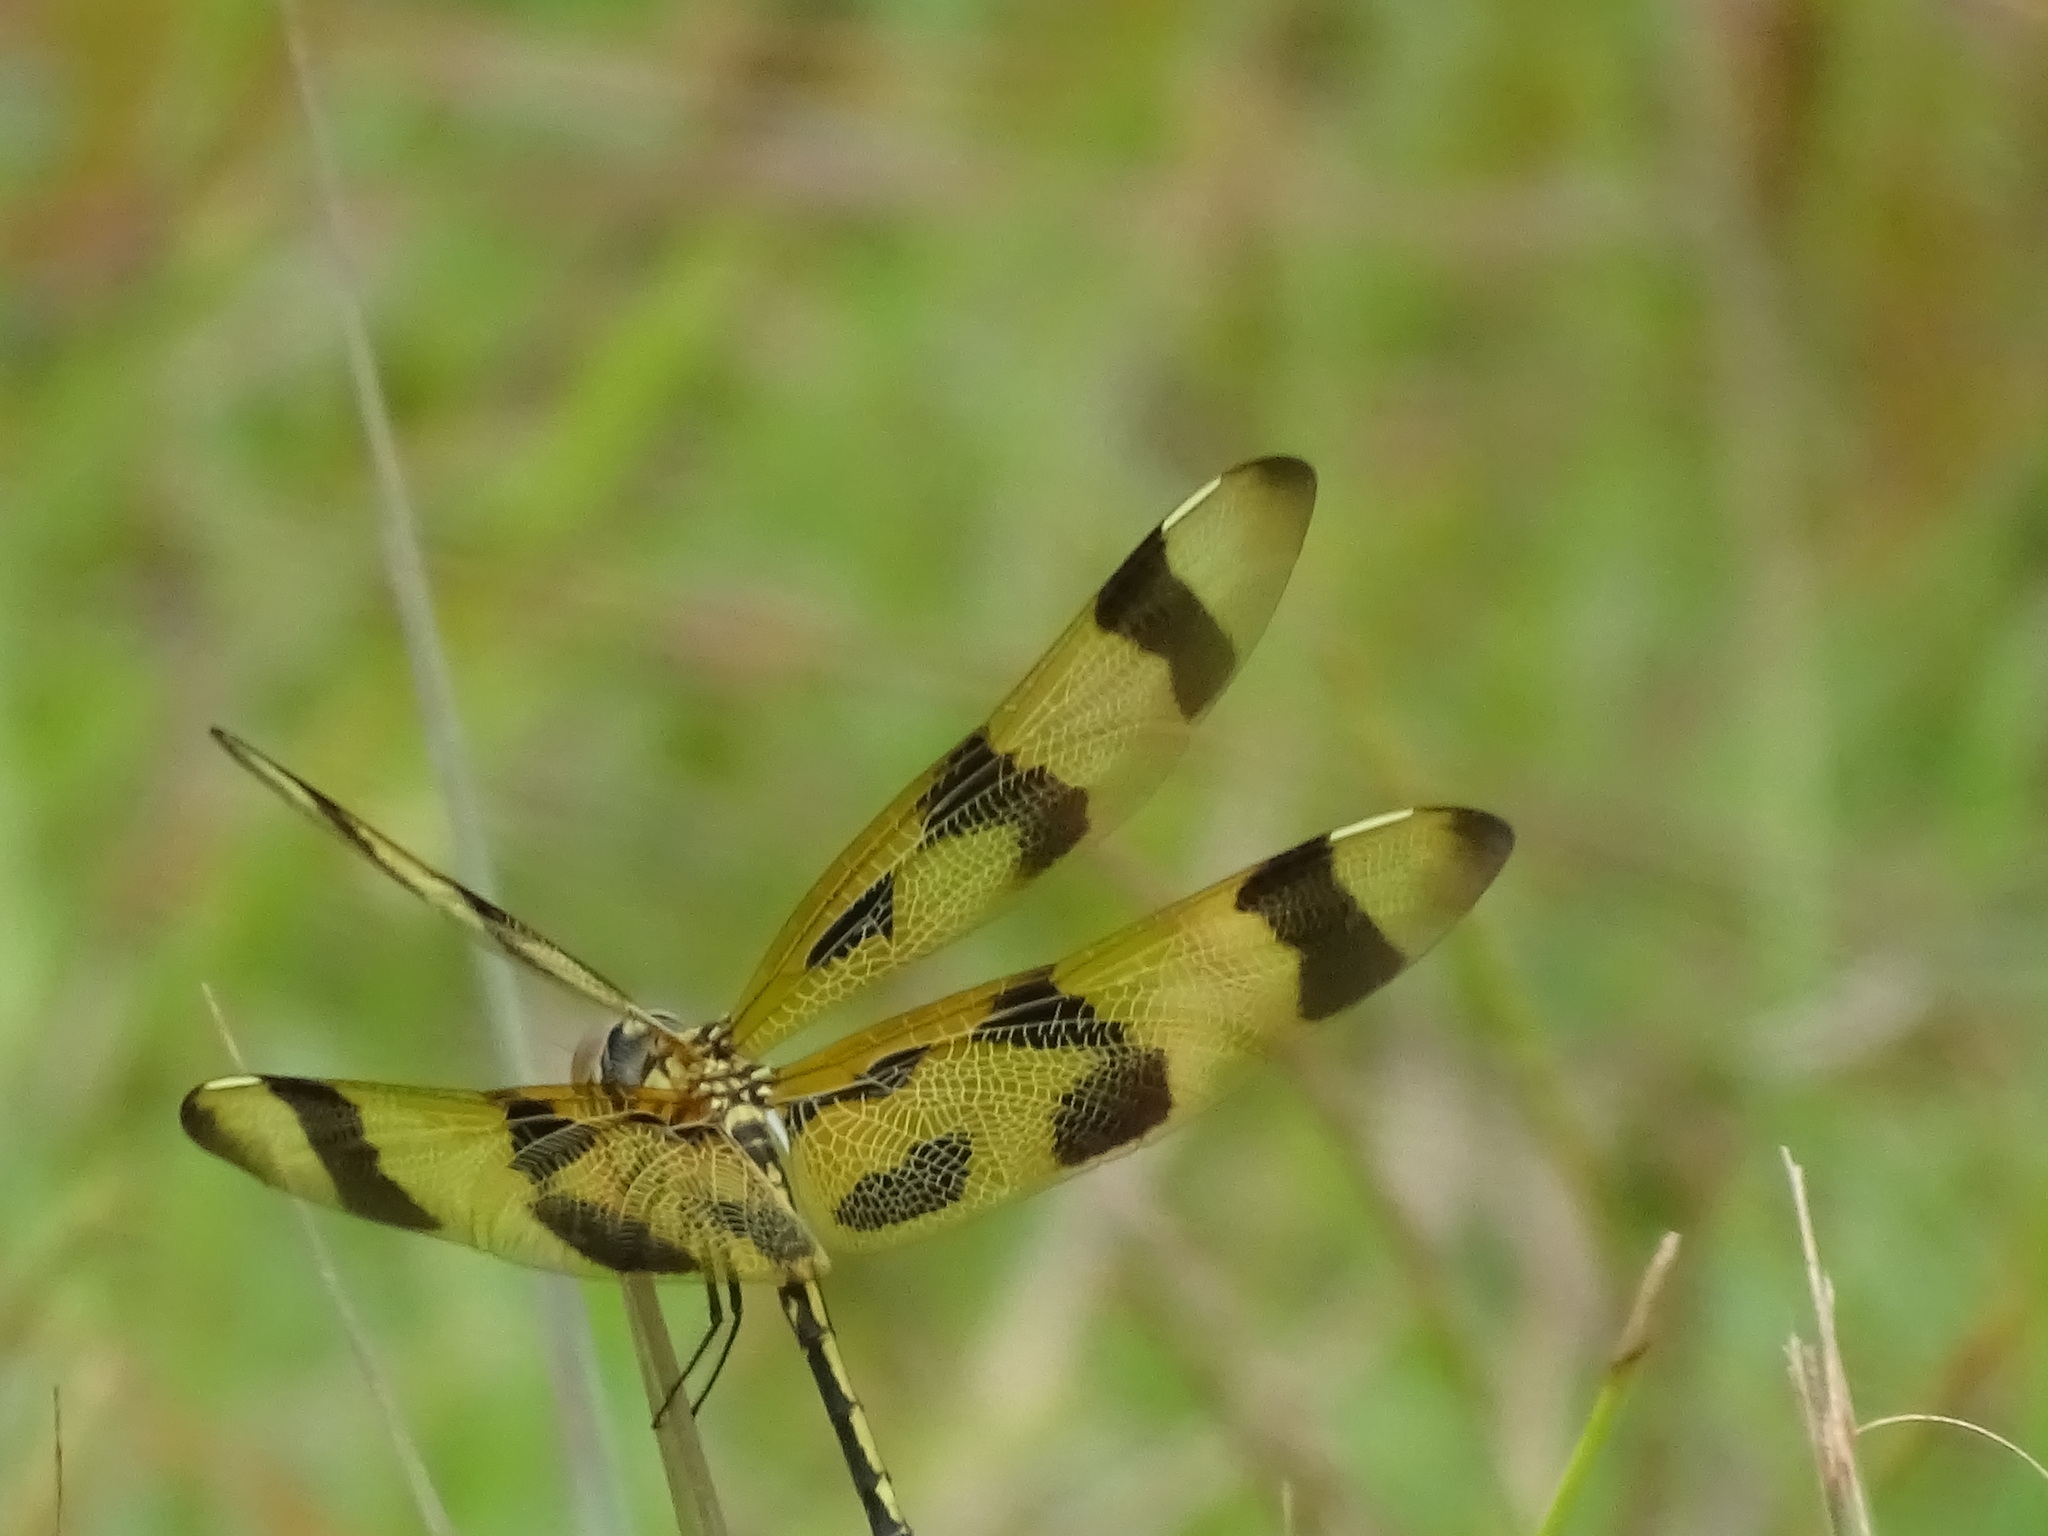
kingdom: Animalia
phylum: Arthropoda
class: Insecta
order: Odonata
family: Libellulidae
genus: Celithemis
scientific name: Celithemis eponina
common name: Halloween pennant
